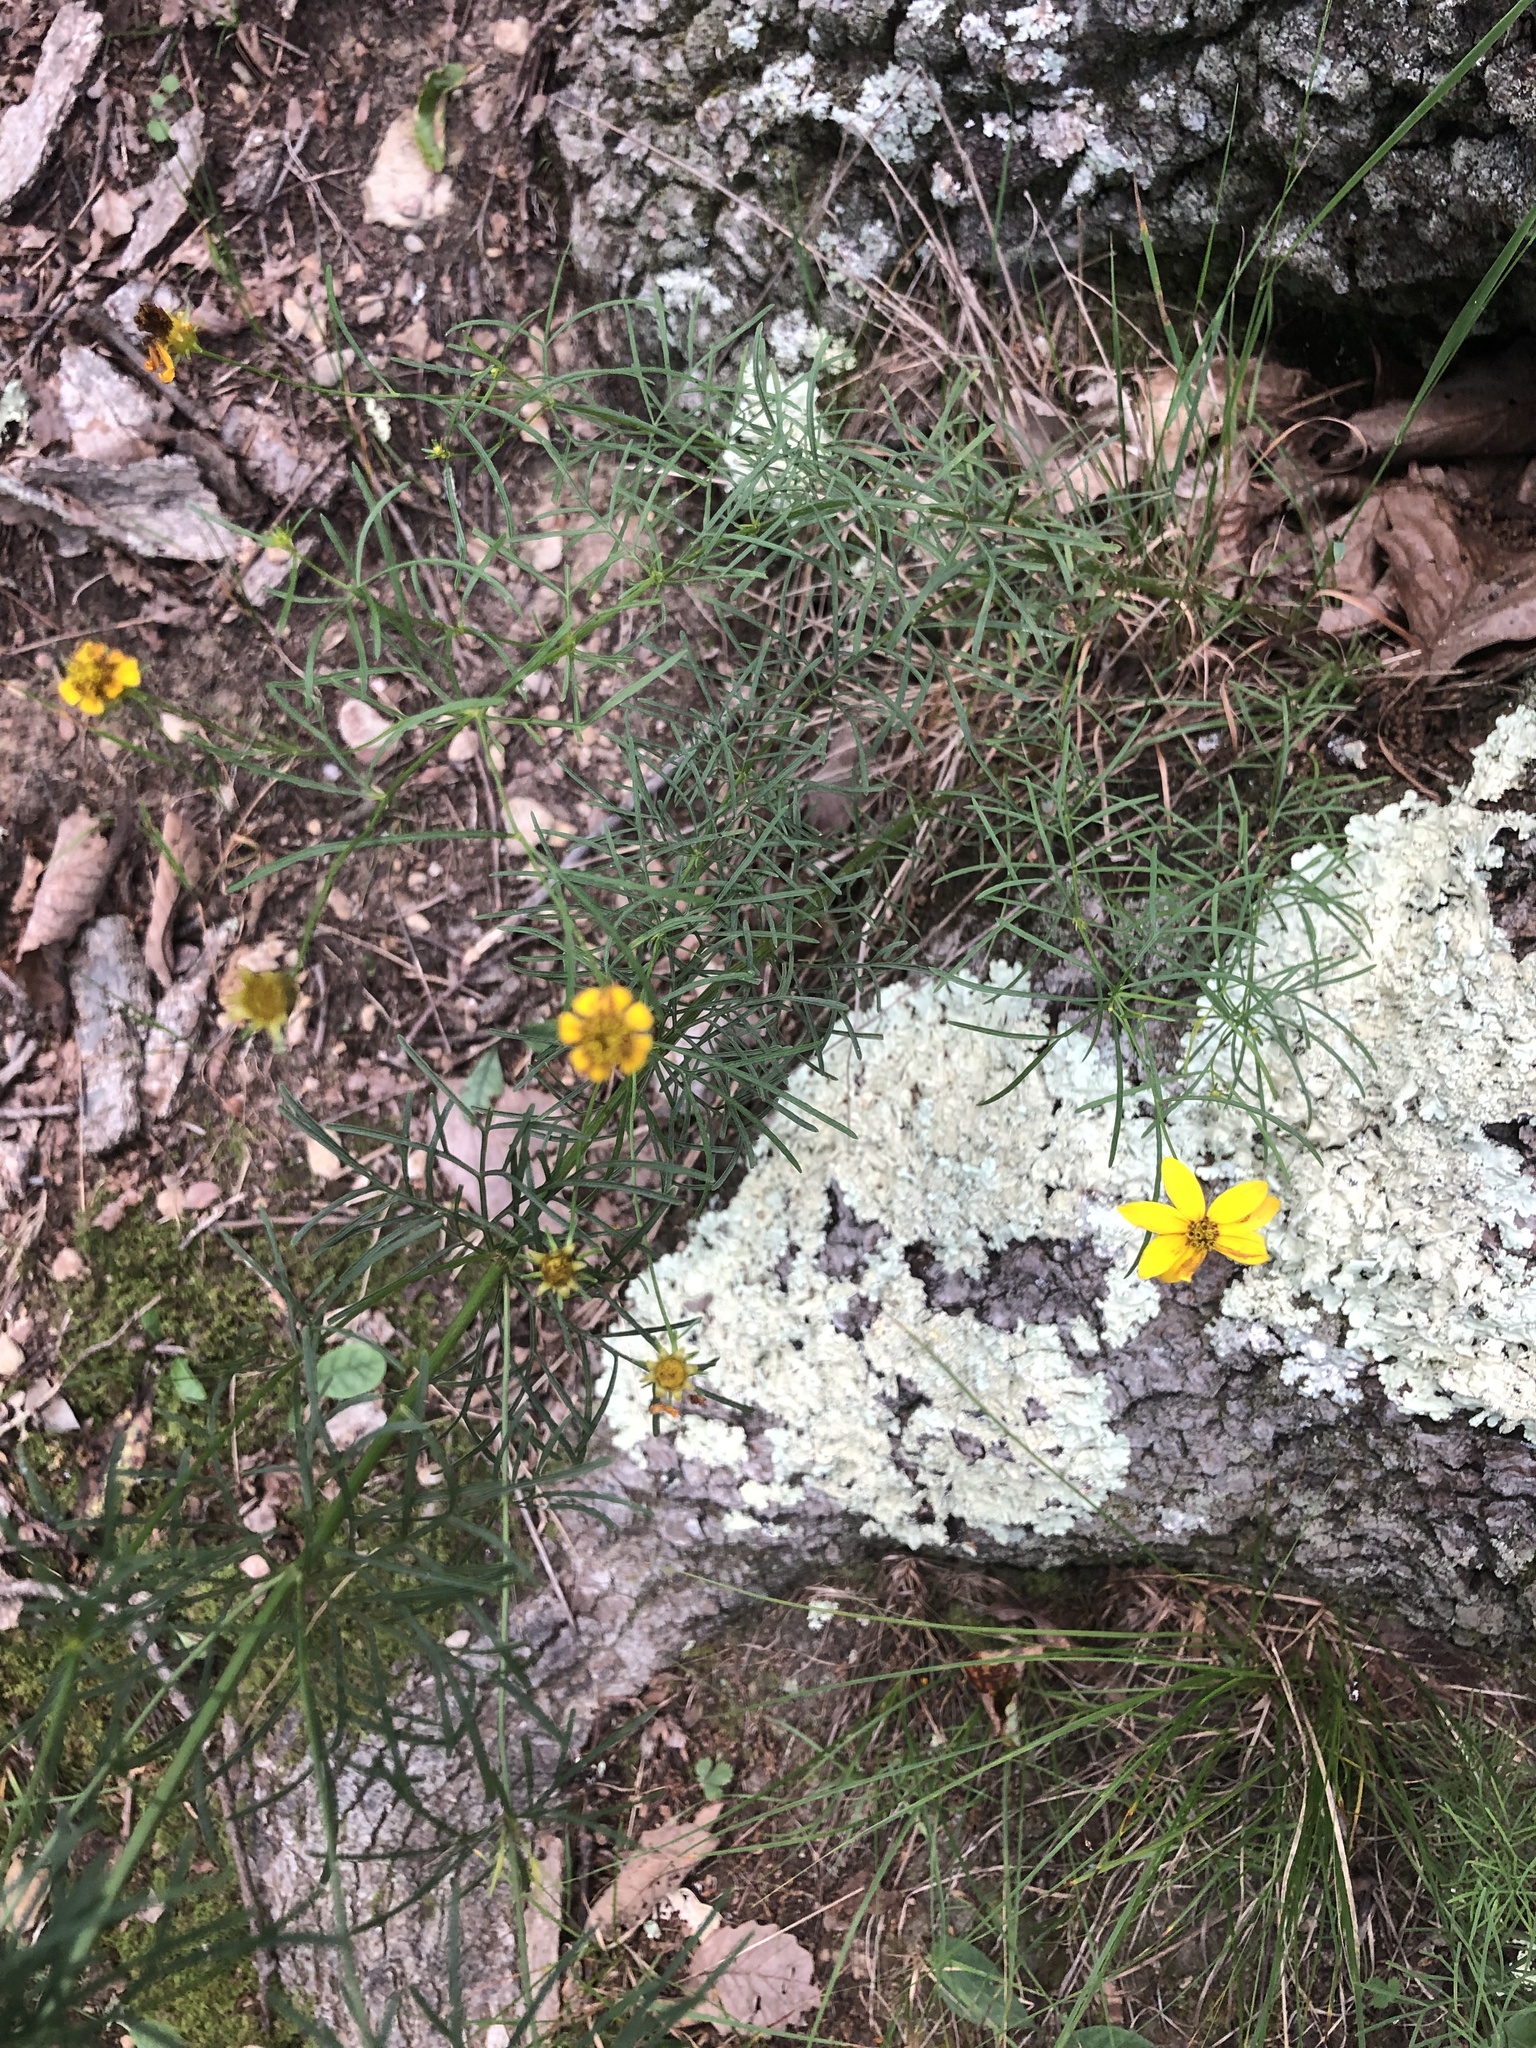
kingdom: Plantae
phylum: Tracheophyta
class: Magnoliopsida
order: Asterales
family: Asteraceae
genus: Coreopsis
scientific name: Coreopsis verticillata
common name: Whorled tickseed
